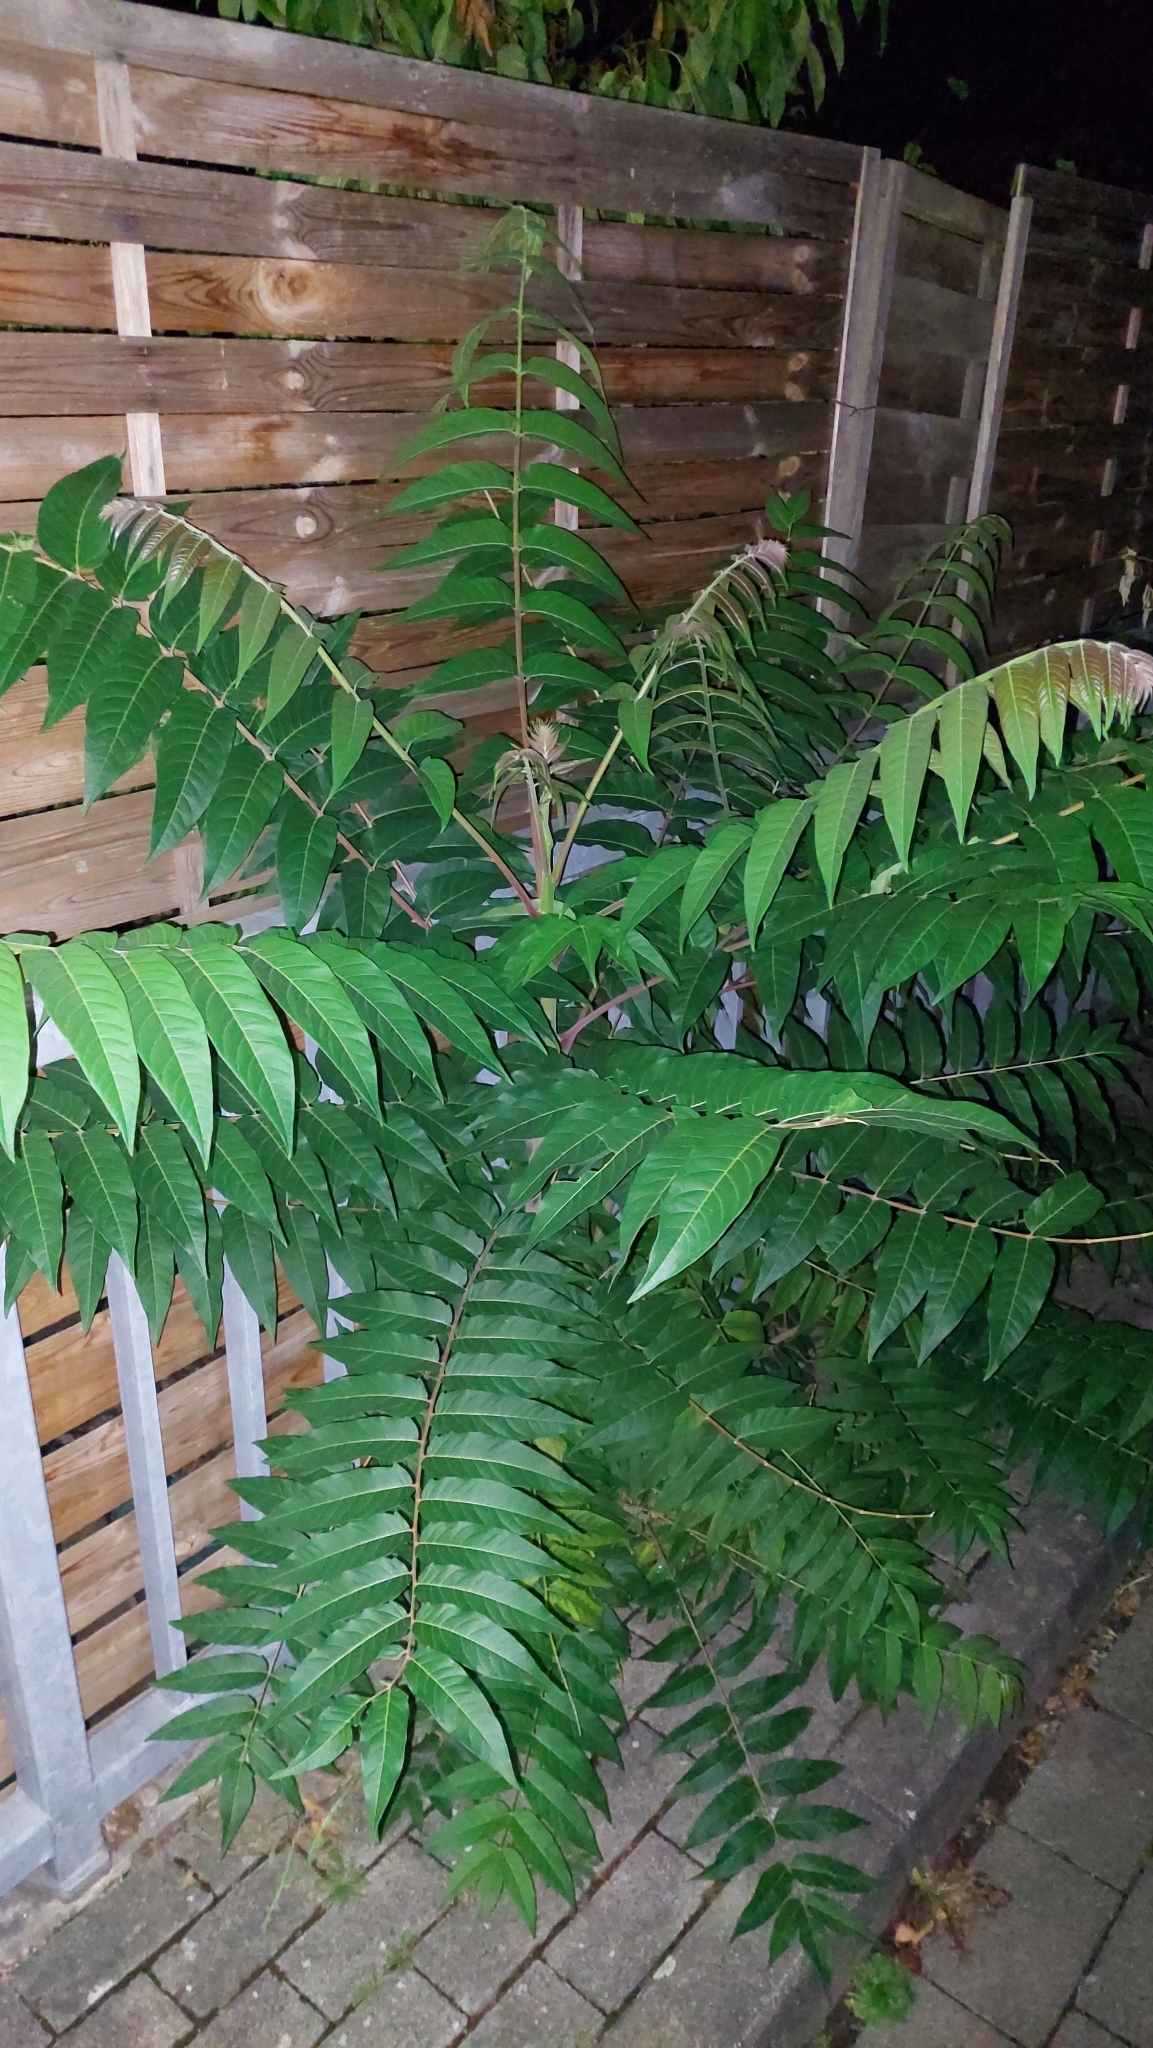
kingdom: Plantae
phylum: Tracheophyta
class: Magnoliopsida
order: Sapindales
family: Simaroubaceae
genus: Ailanthus
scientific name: Ailanthus altissima
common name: Tree-of-heaven
